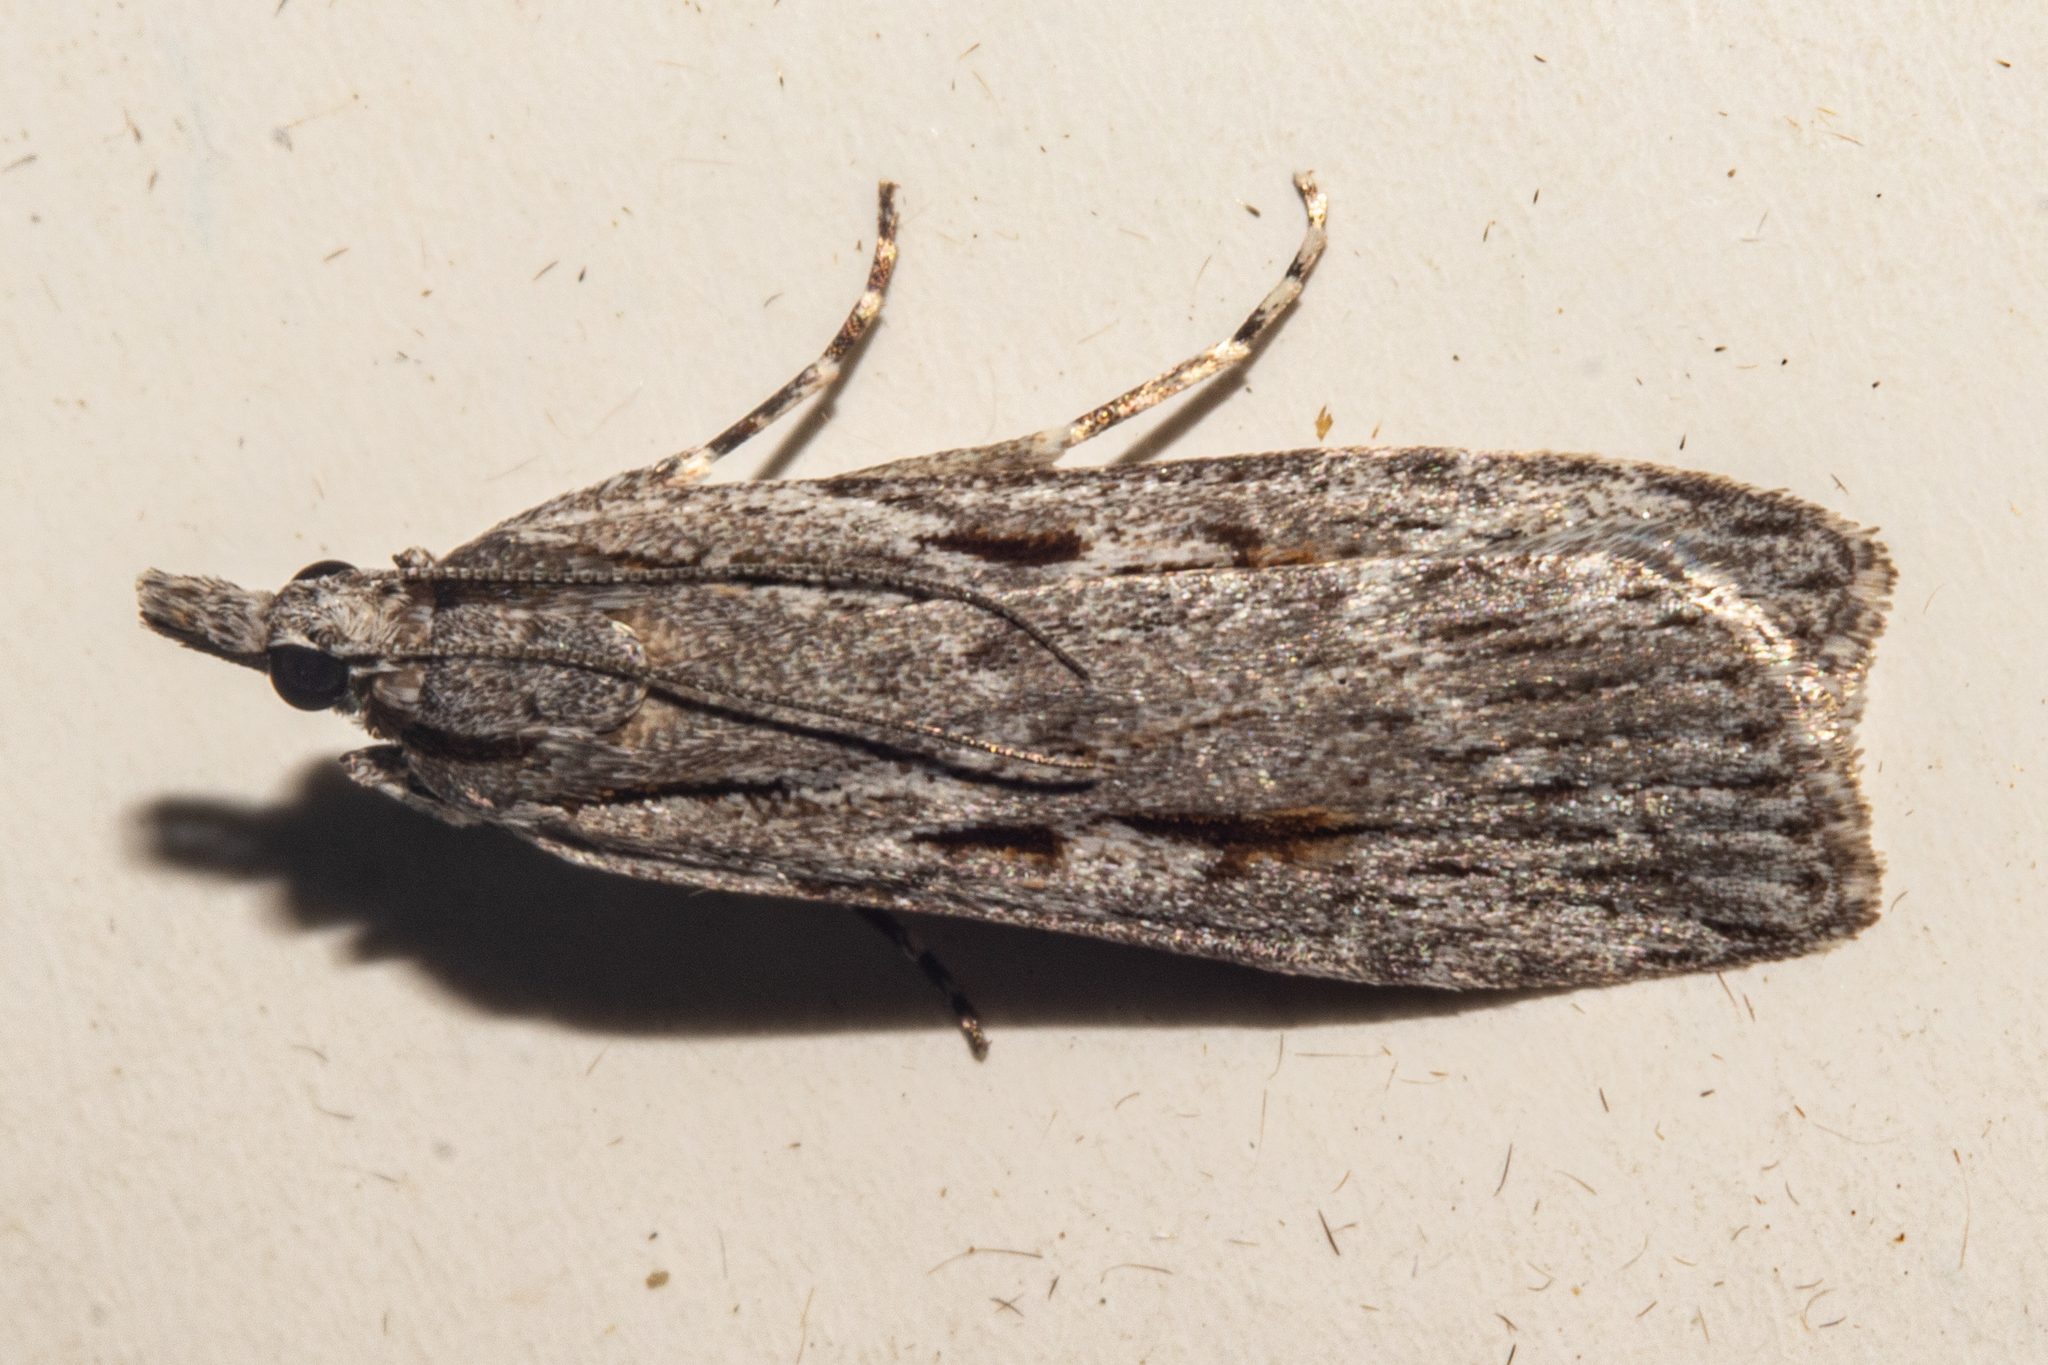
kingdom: Animalia
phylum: Arthropoda
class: Insecta
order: Lepidoptera
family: Crambidae
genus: Scoparia
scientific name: Scoparia indistinctalis
